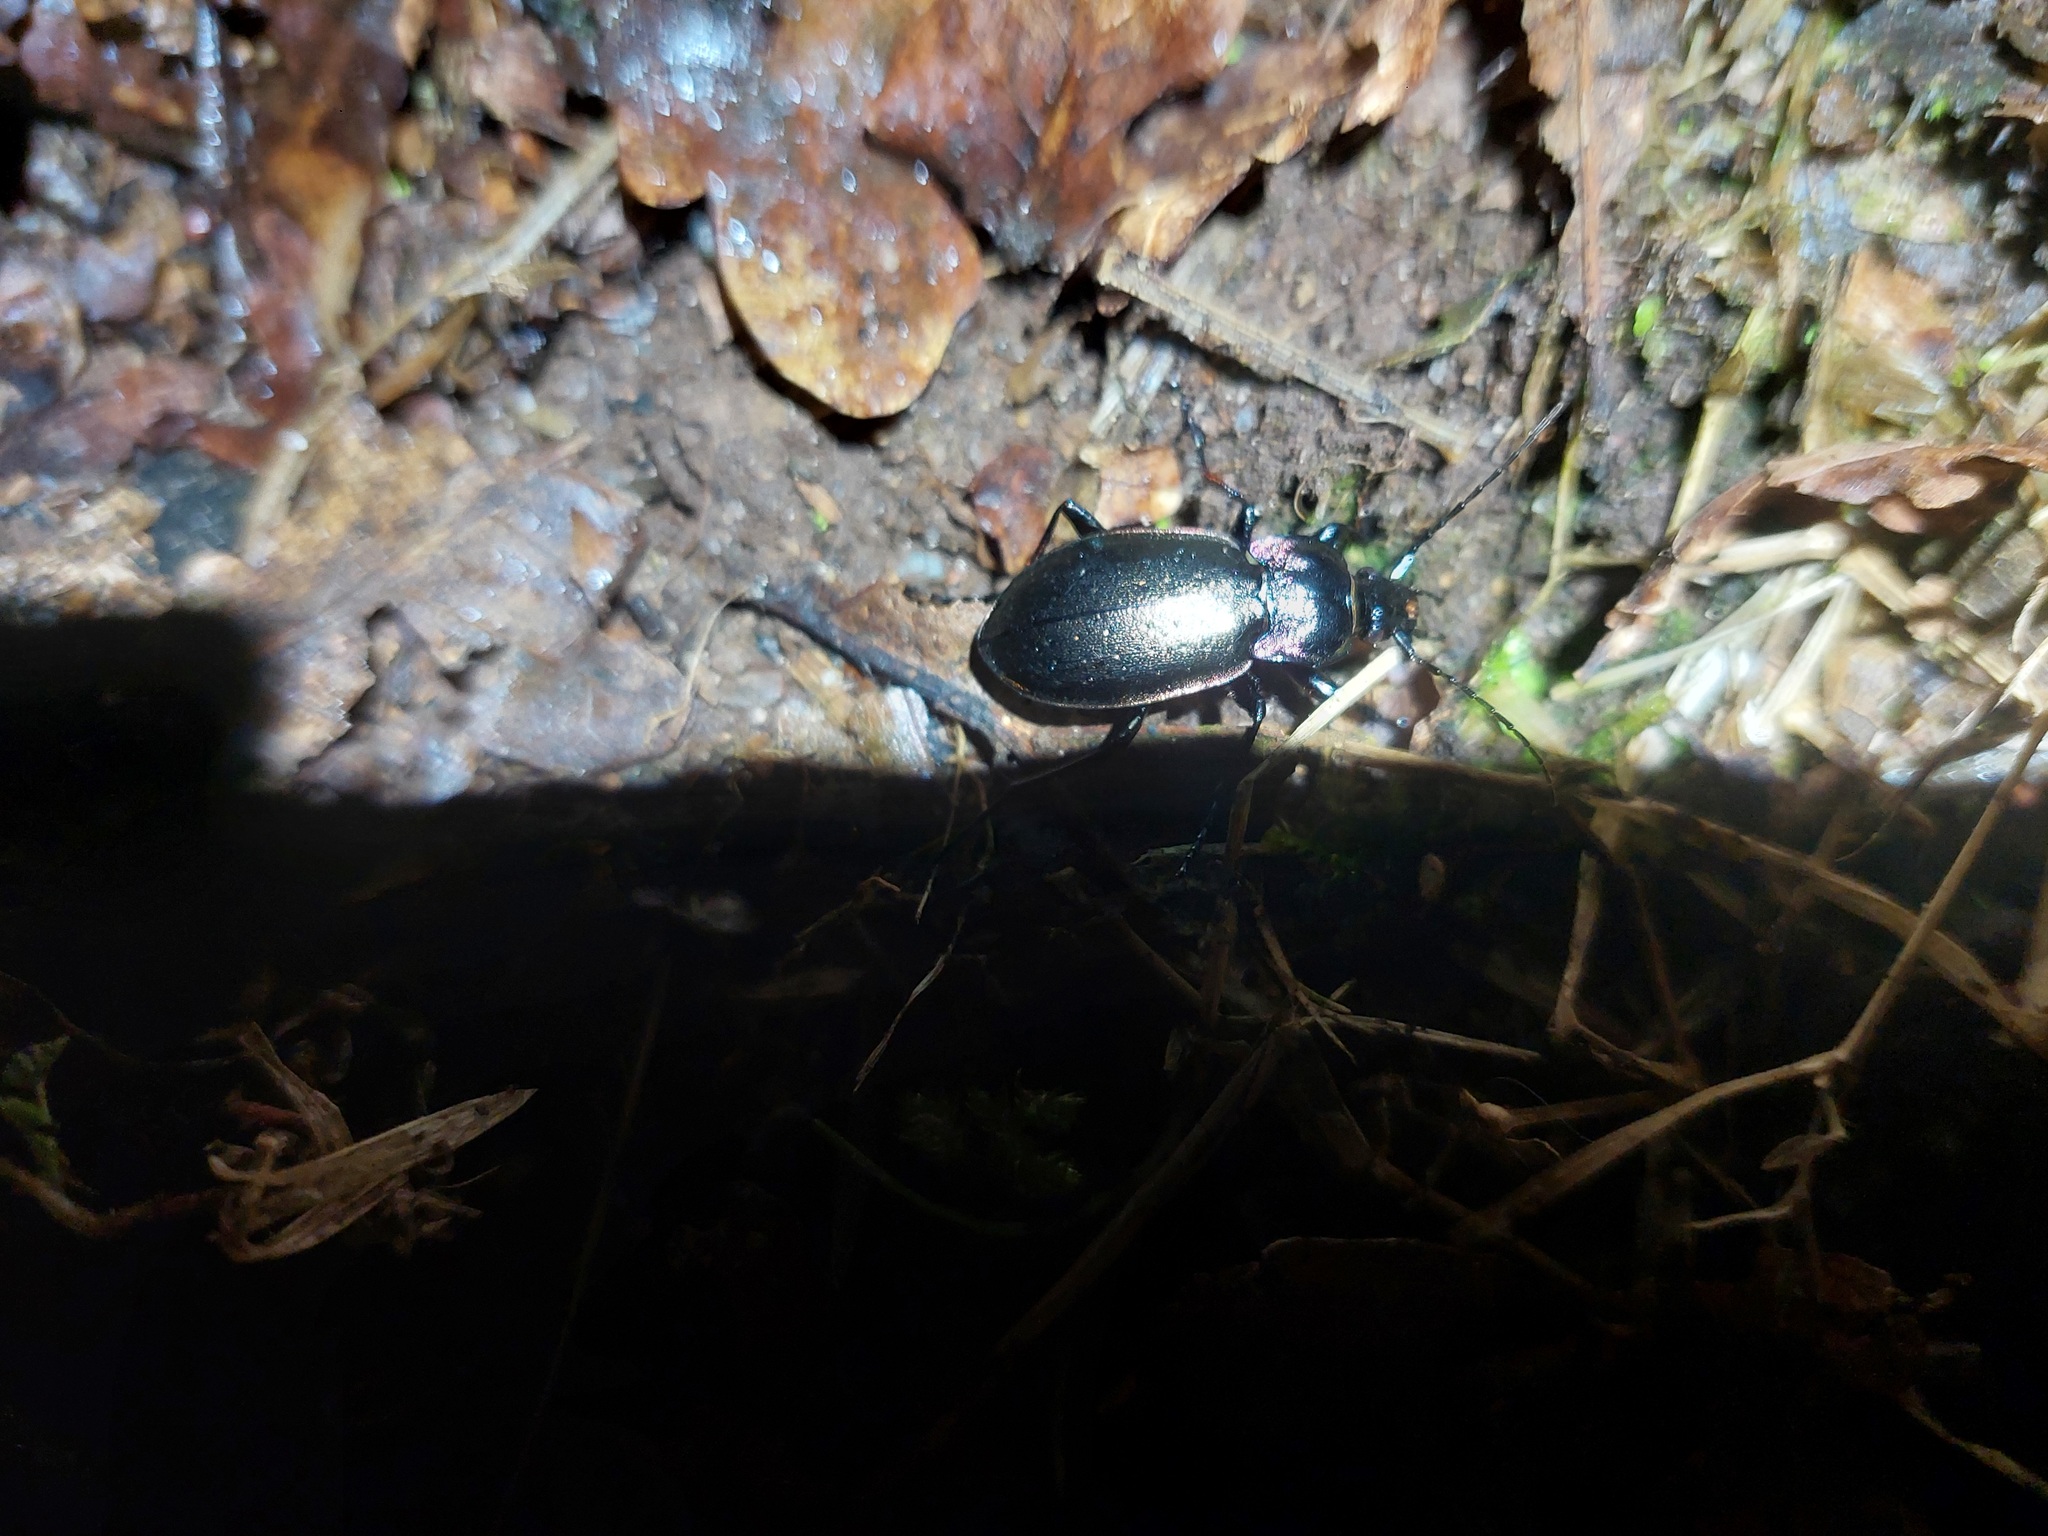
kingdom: Animalia
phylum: Arthropoda
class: Insecta
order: Coleoptera
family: Carabidae
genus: Carabus
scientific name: Carabus nemoralis
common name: European ground beetle
